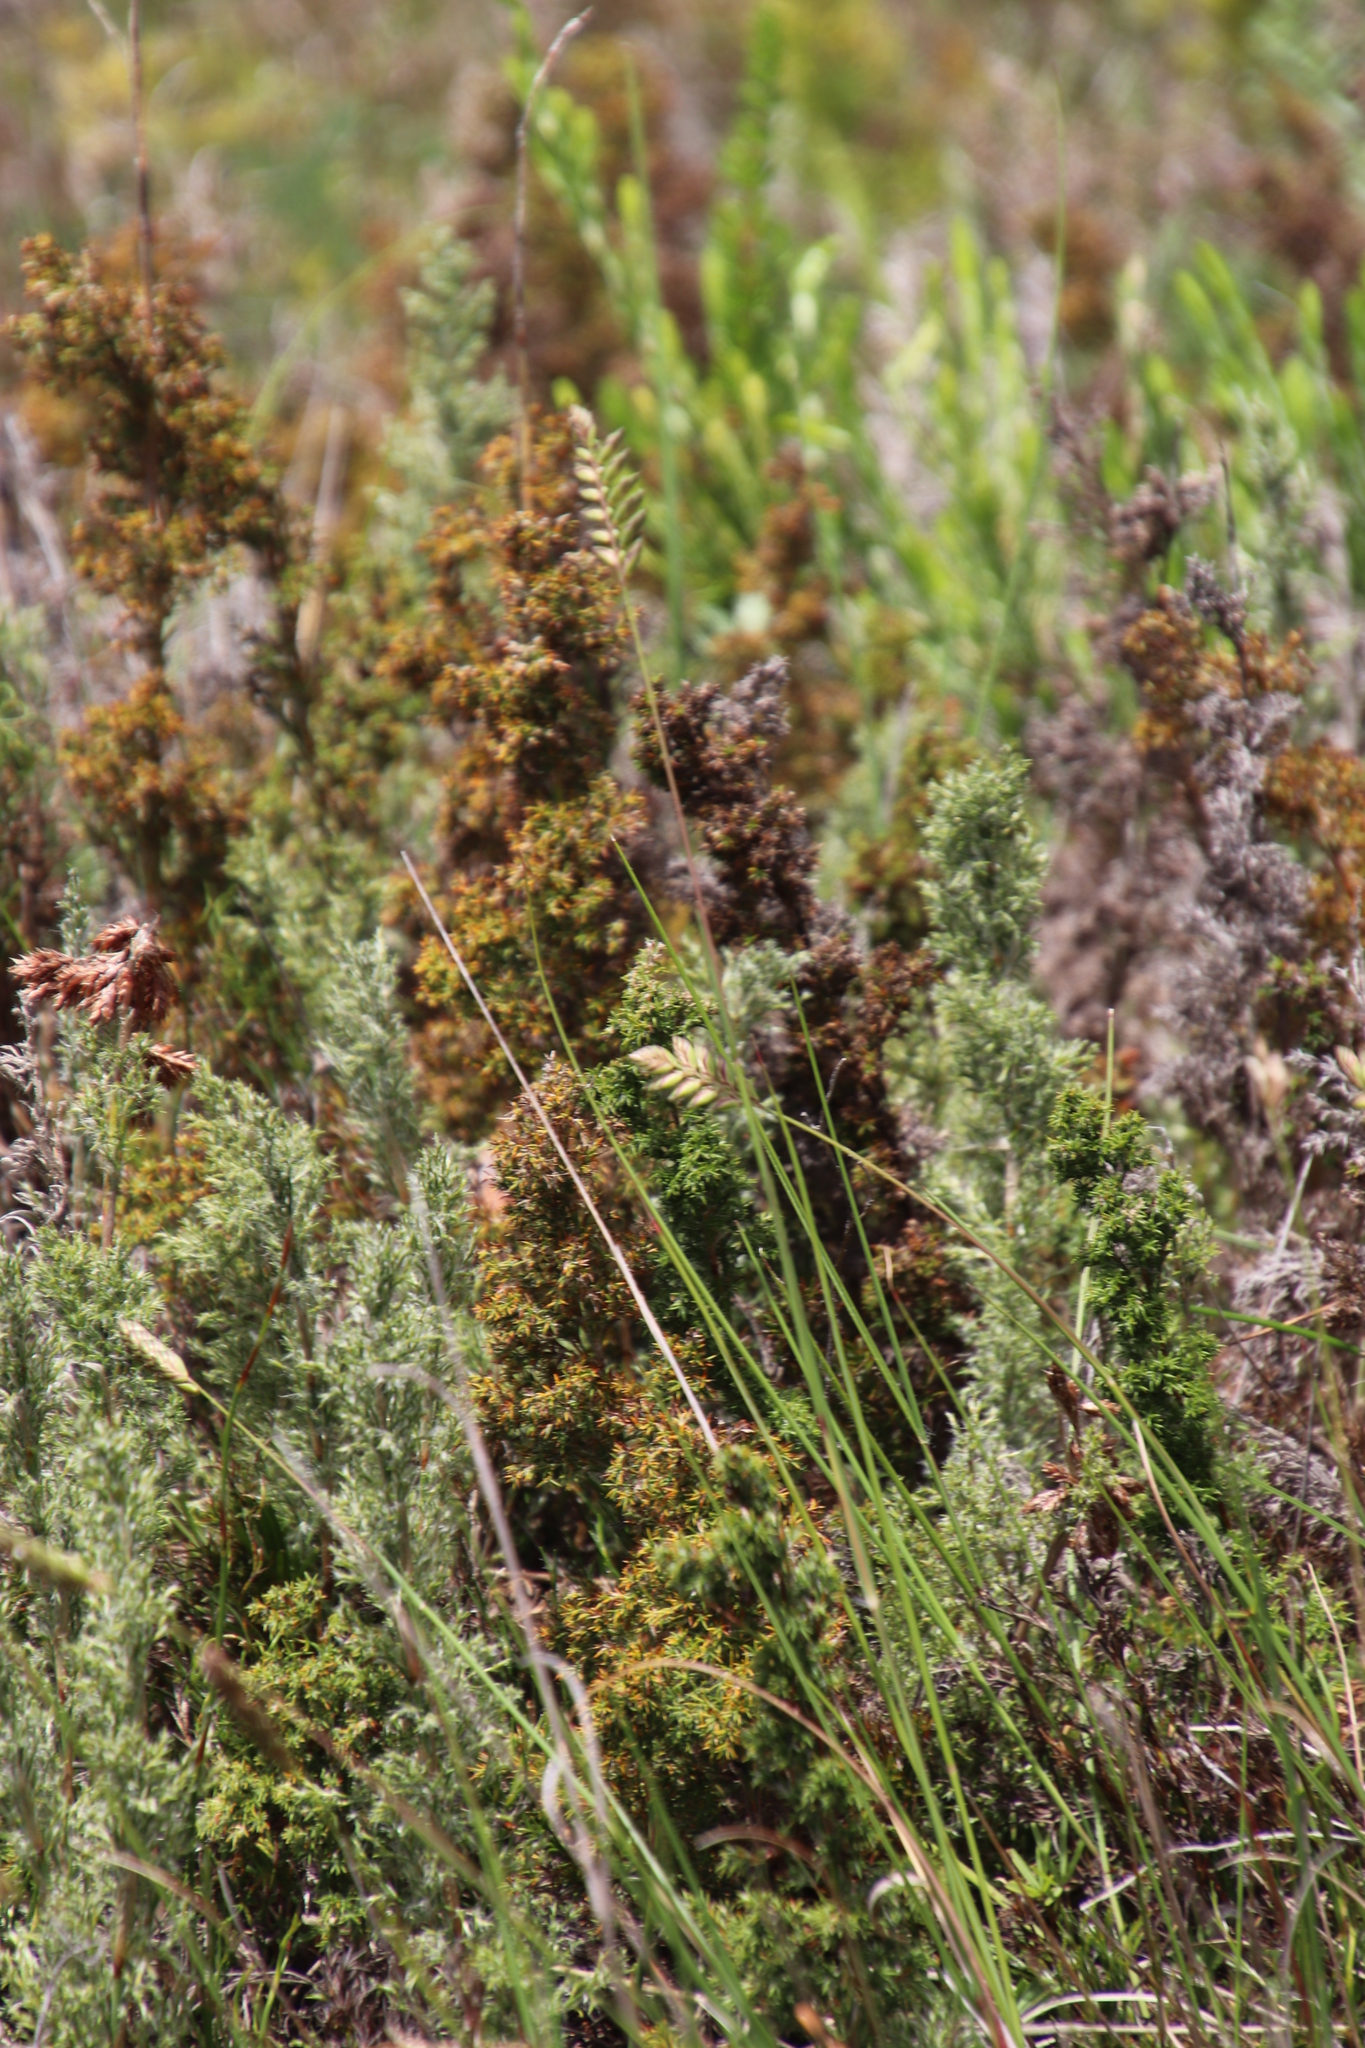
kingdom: Plantae
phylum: Tracheophyta
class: Liliopsida
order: Poales
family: Restionaceae
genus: Thamnochortus
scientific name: Thamnochortus fruticosus
